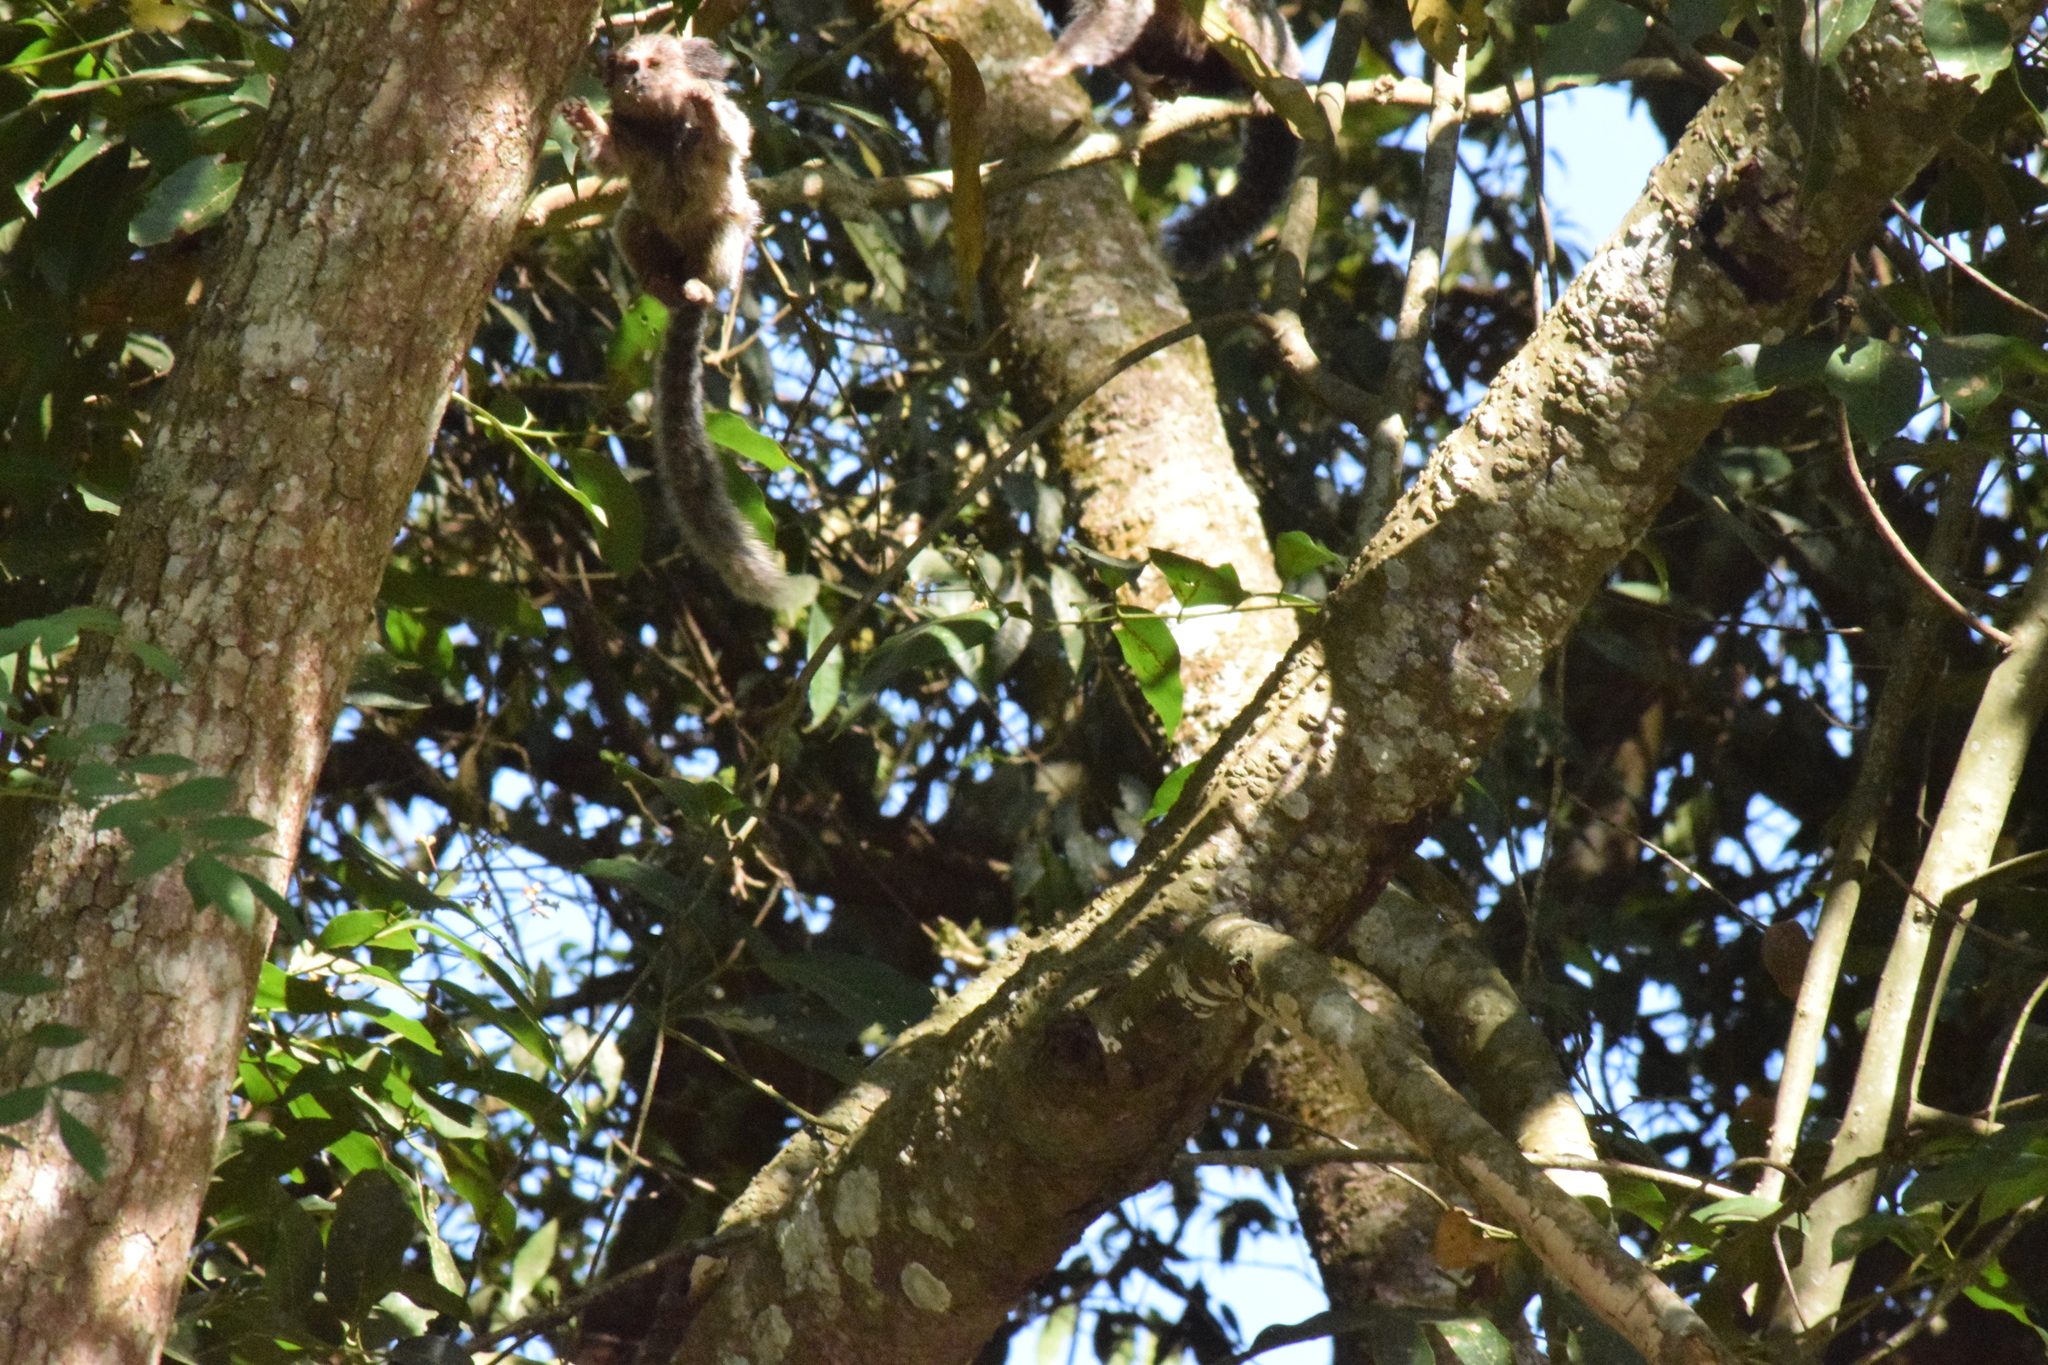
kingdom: Animalia
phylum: Chordata
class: Mammalia
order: Primates
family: Callitrichidae
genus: Callithrix
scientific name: Callithrix penicillata
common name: Black-tufted marmoset
